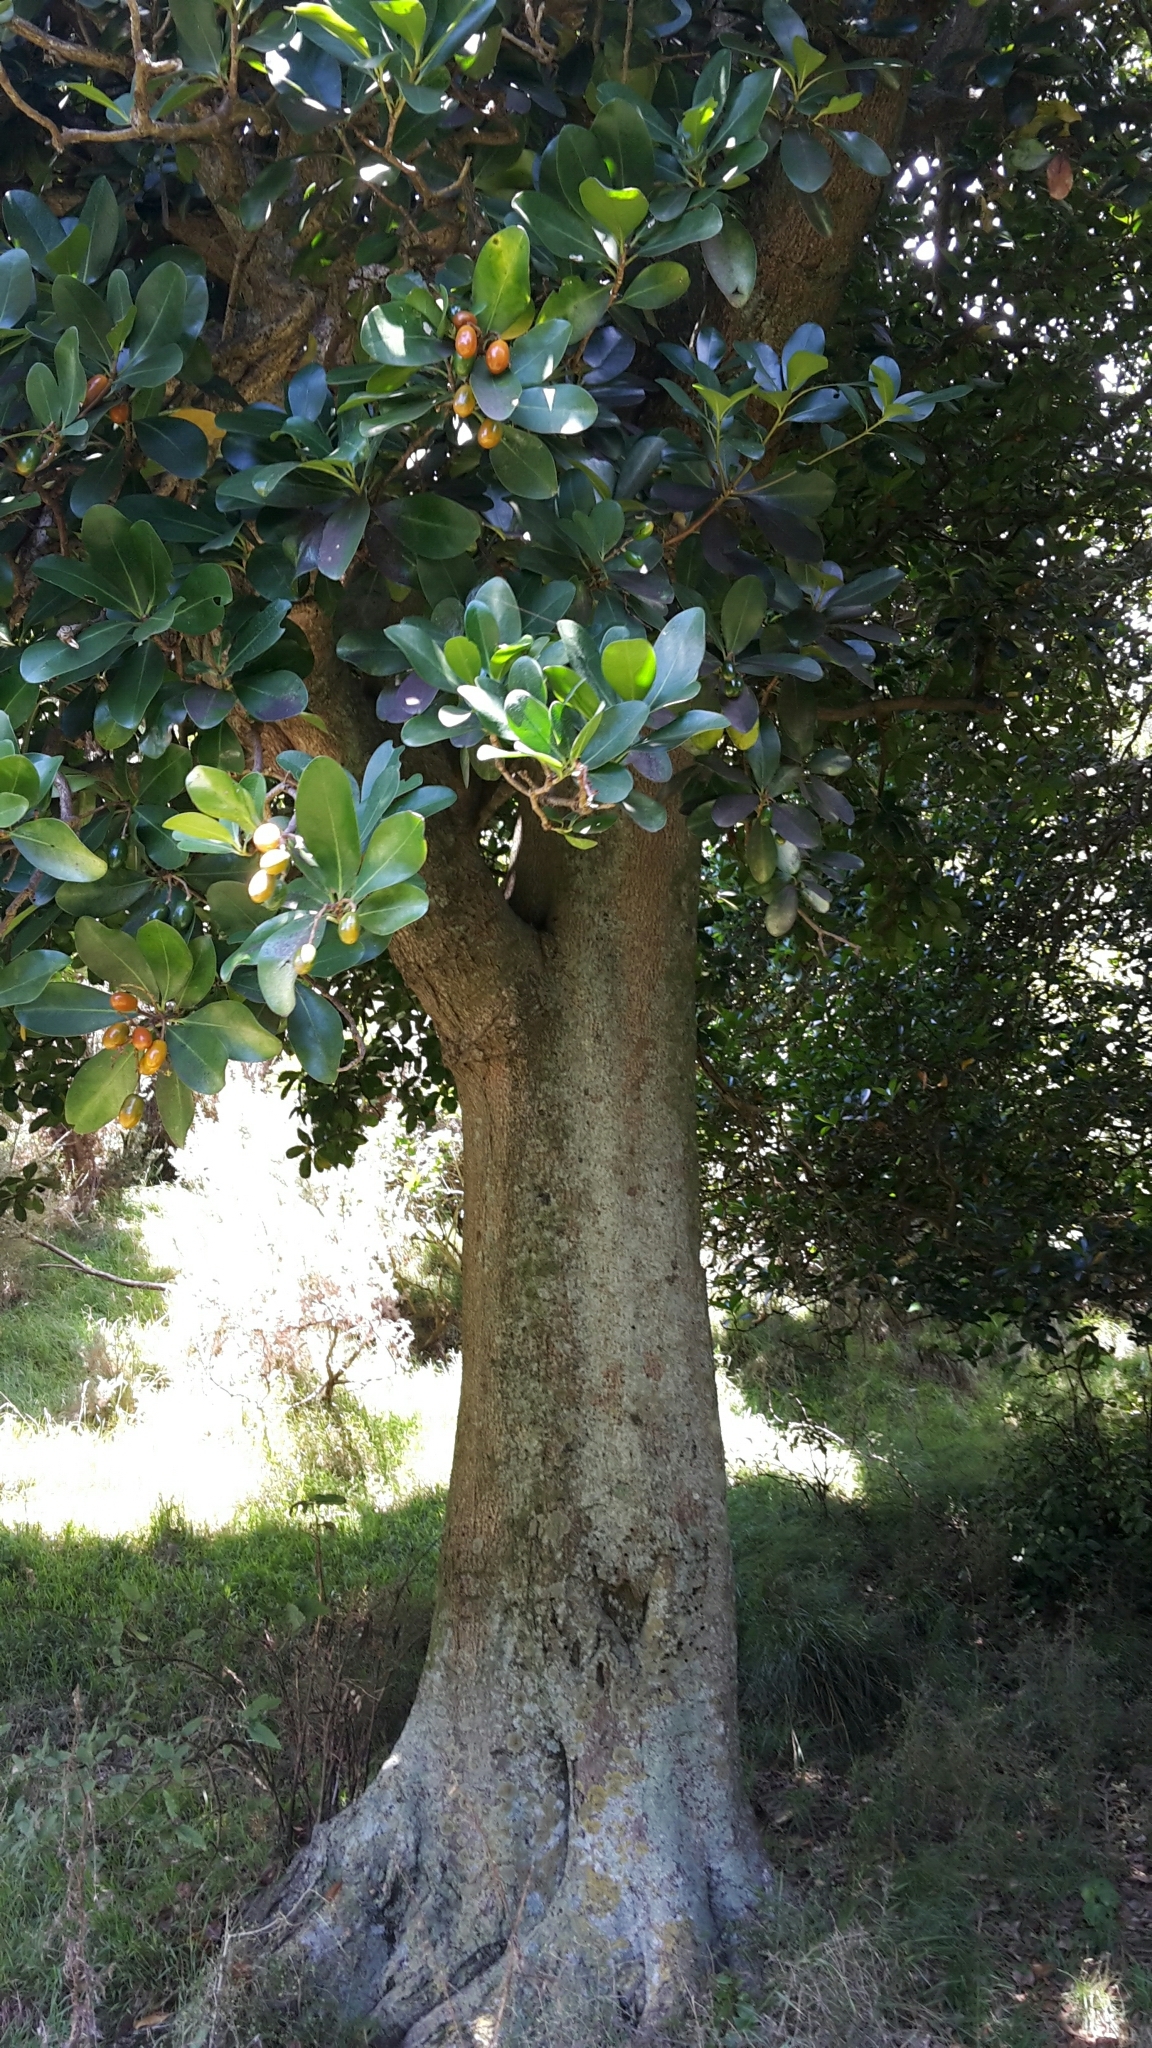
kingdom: Plantae
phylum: Tracheophyta
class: Magnoliopsida
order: Cucurbitales
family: Corynocarpaceae
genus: Corynocarpus
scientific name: Corynocarpus laevigatus
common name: New zealand laurel
